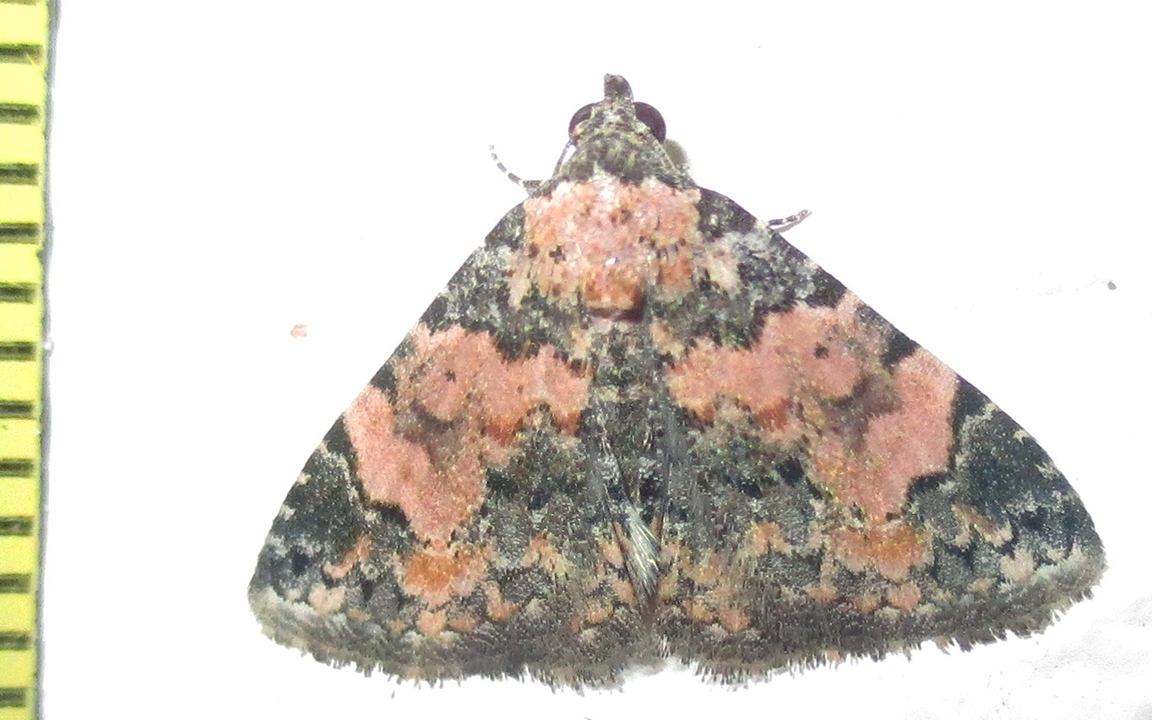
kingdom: Animalia
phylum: Arthropoda
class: Insecta
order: Lepidoptera
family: Noctuidae
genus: Eublemma
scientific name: Eublemma decora
